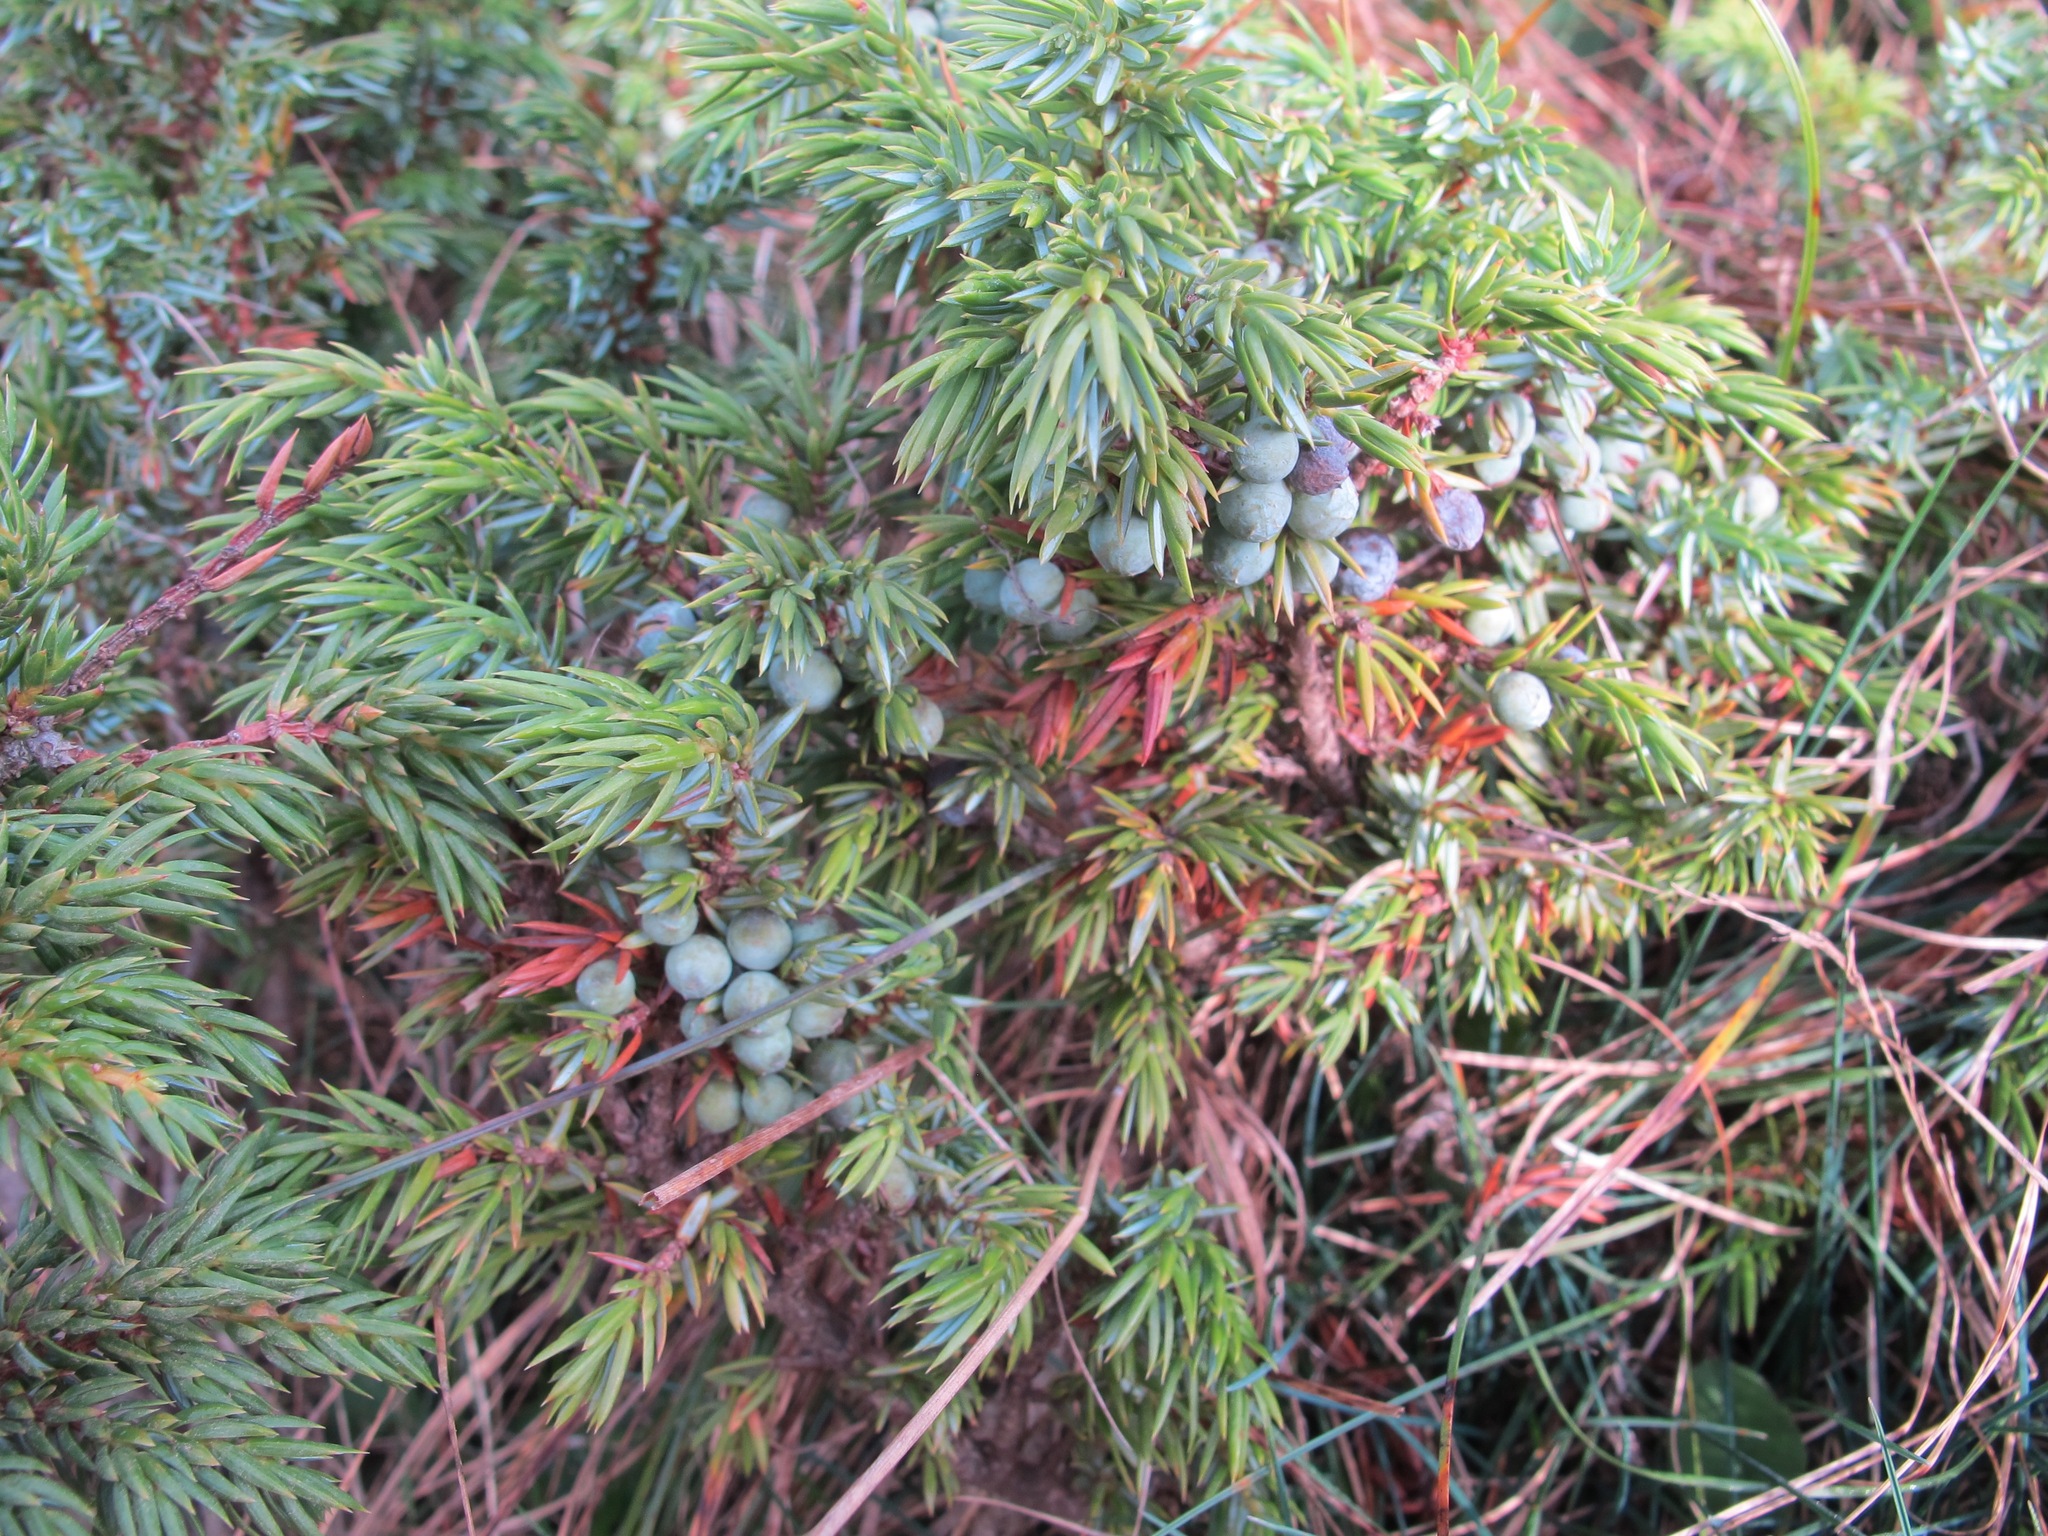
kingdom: Plantae
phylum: Tracheophyta
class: Pinopsida
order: Pinales
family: Cupressaceae
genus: Juniperus
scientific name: Juniperus communis
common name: Common juniper
